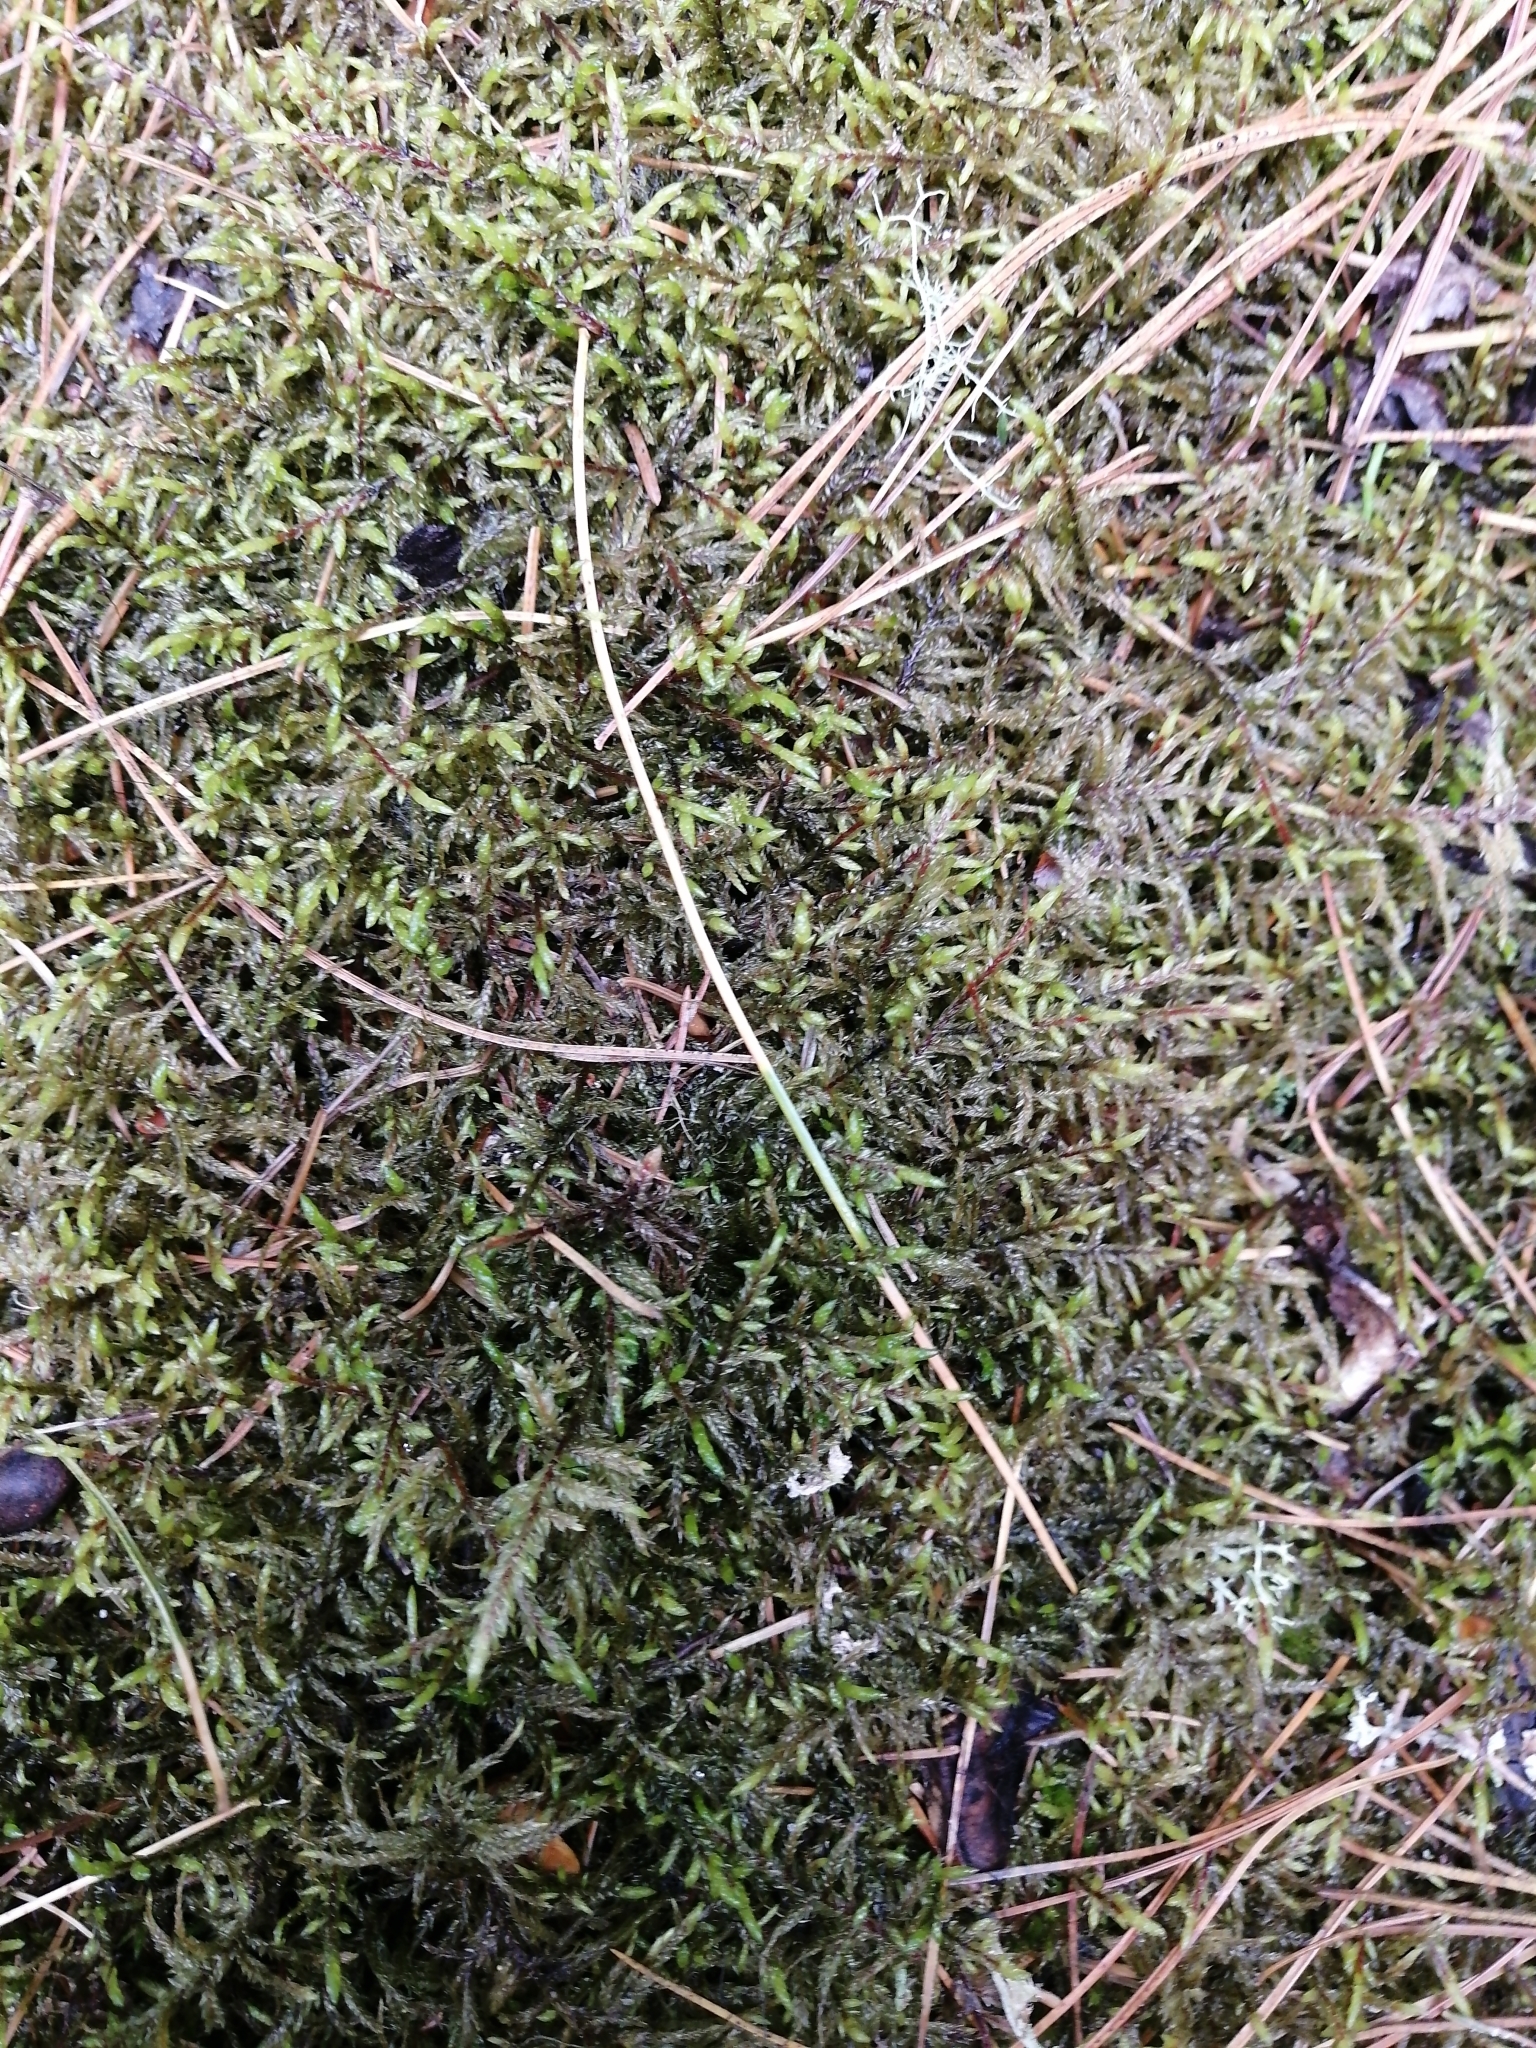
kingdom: Plantae
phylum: Bryophyta
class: Bryopsida
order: Hypnales
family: Hylocomiaceae
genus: Pleurozium
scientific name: Pleurozium schreberi
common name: Red-stemmed feather moss
